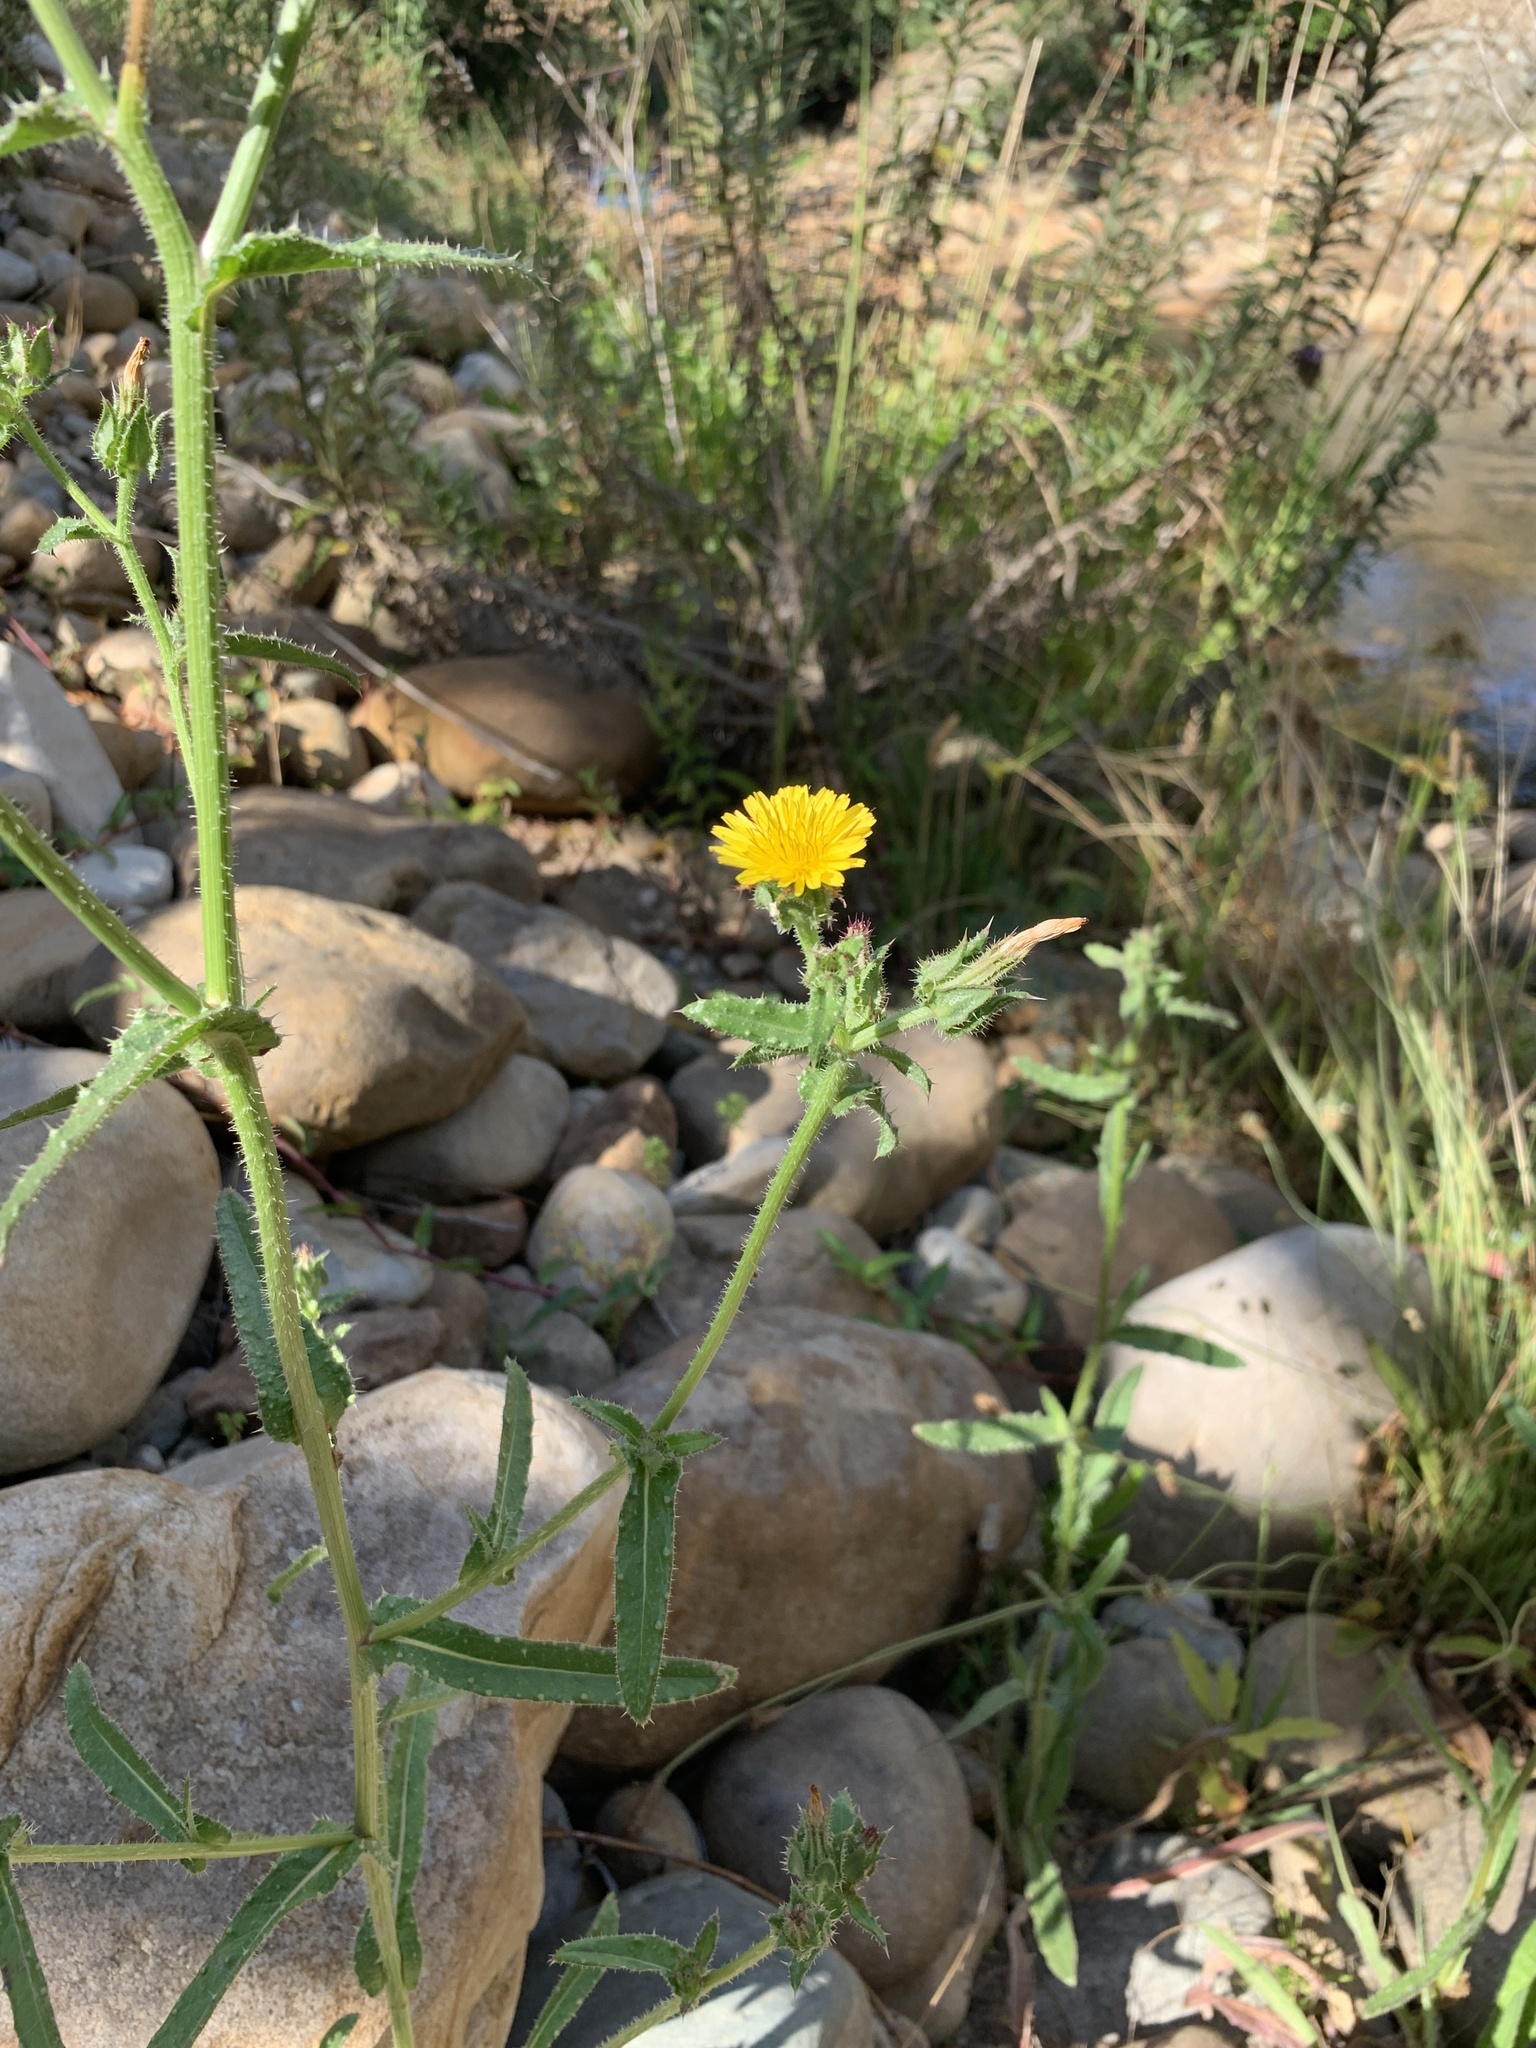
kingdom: Plantae
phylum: Tracheophyta
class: Magnoliopsida
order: Asterales
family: Asteraceae
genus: Helminthotheca
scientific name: Helminthotheca echioides
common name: Ox-tongue
